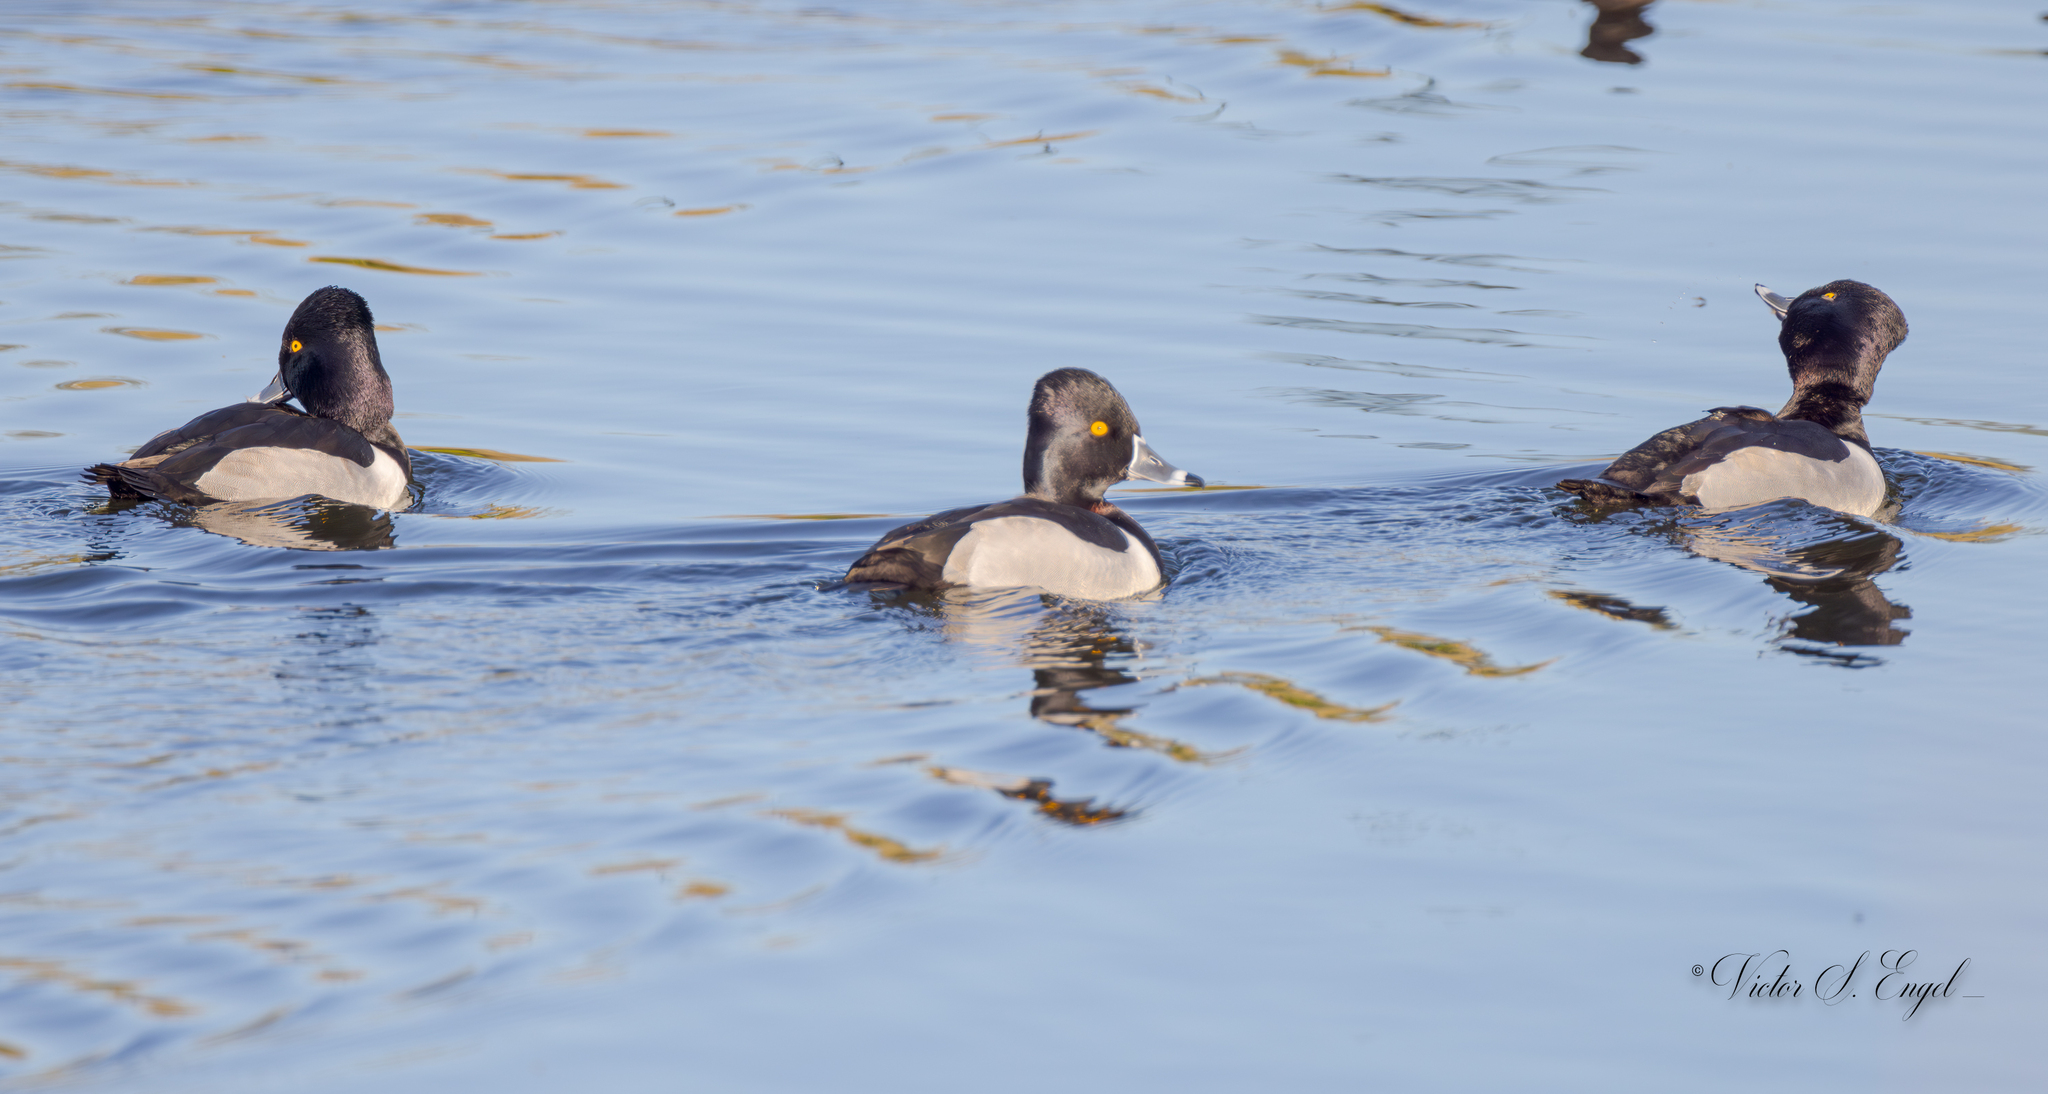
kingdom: Animalia
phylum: Chordata
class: Aves
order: Anseriformes
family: Anatidae
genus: Aythya
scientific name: Aythya collaris
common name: Ring-necked duck
